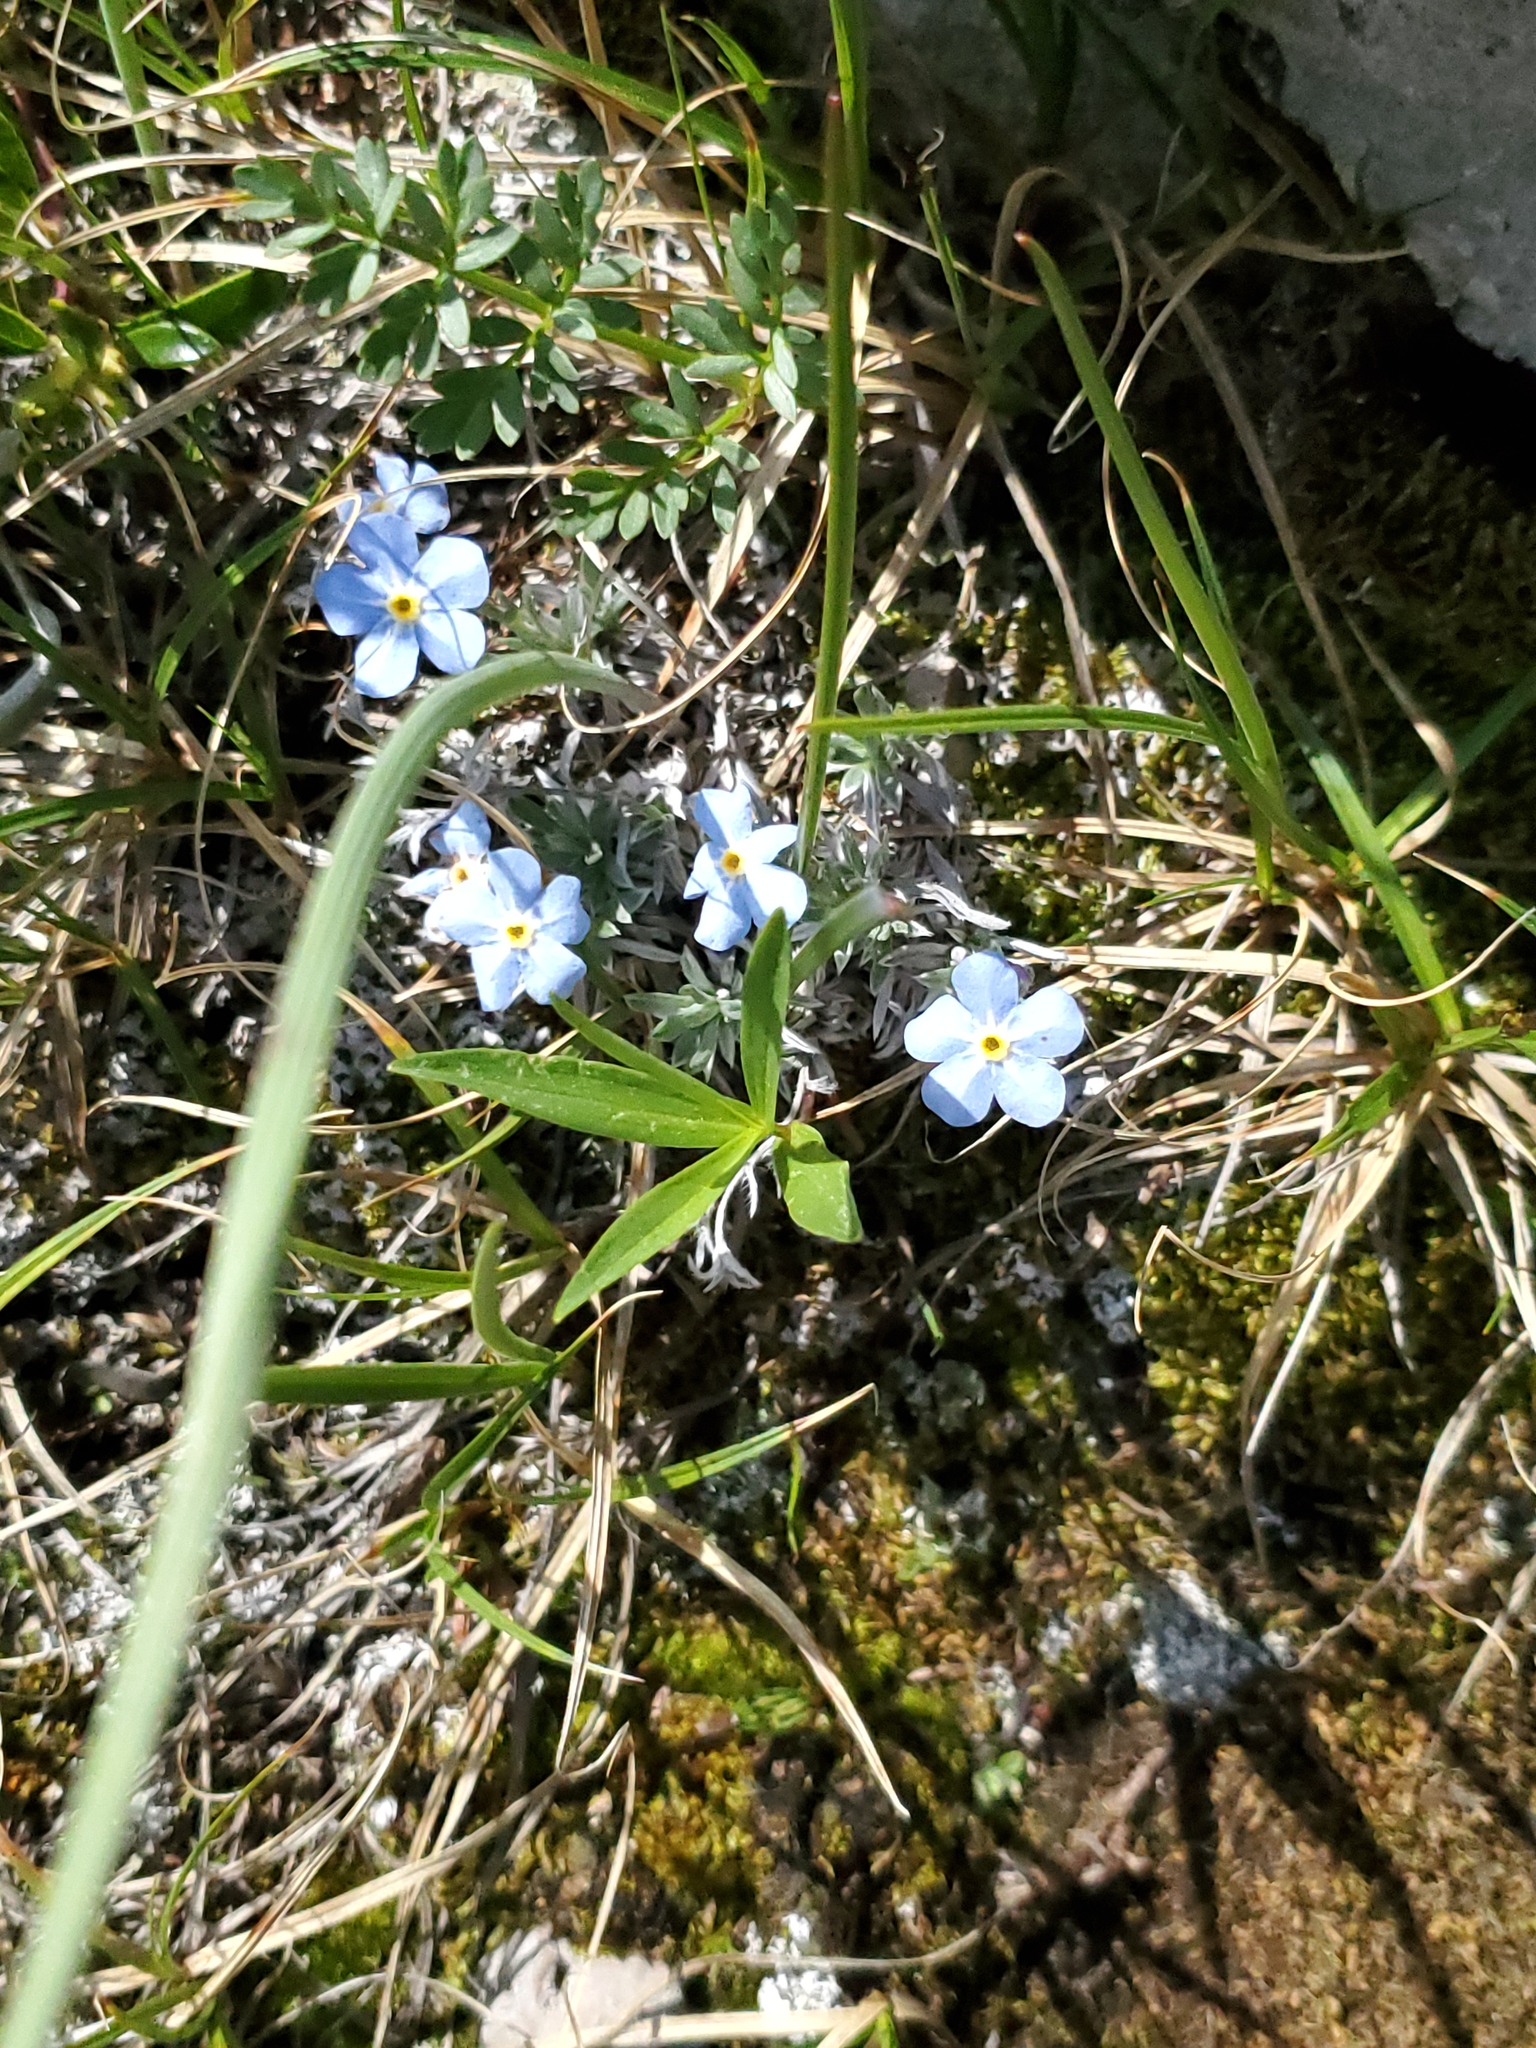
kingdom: Plantae
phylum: Tracheophyta
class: Magnoliopsida
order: Boraginales
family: Boraginaceae
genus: Eritrichium
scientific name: Eritrichium howardii
